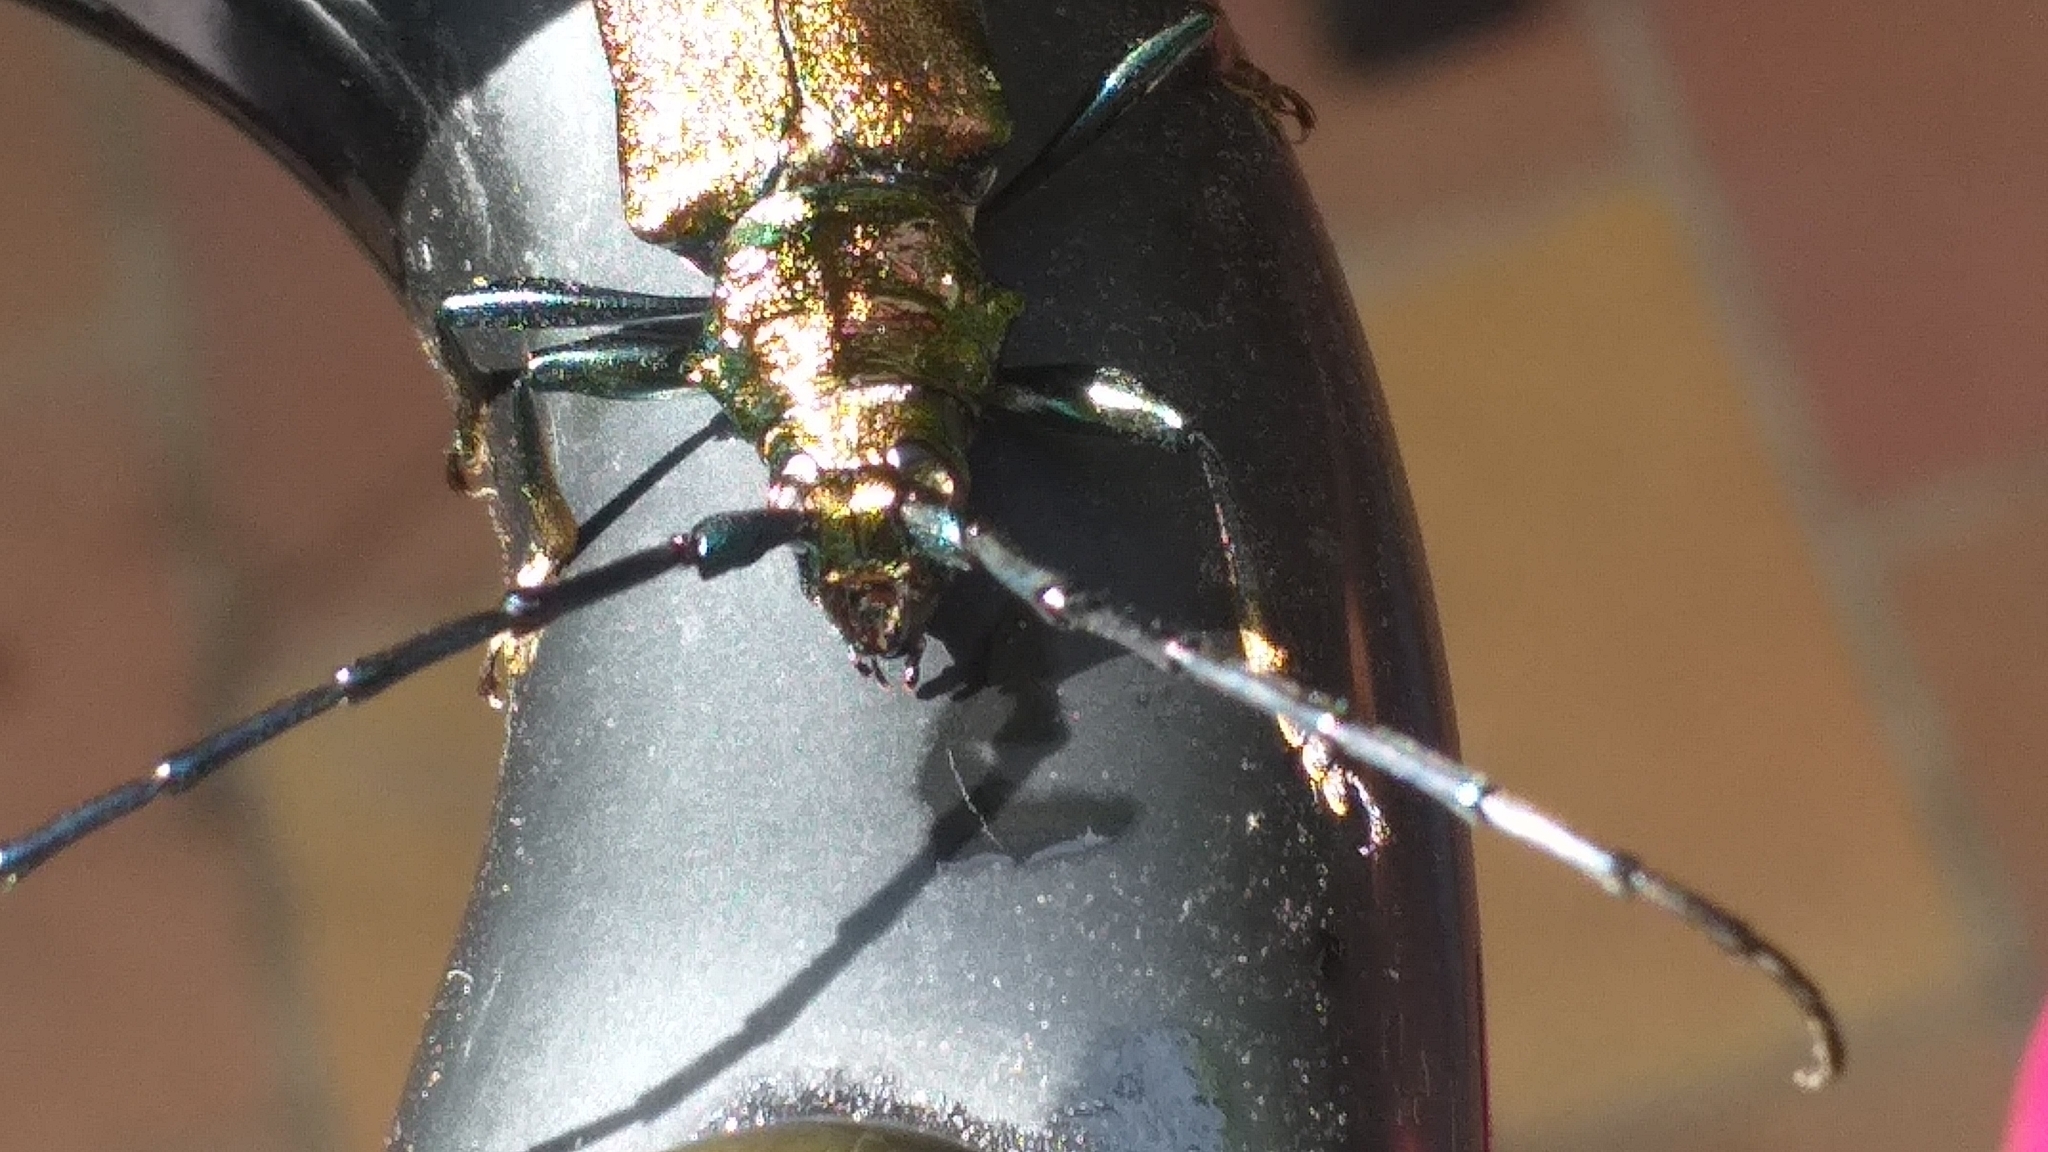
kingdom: Animalia
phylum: Arthropoda
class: Insecta
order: Coleoptera
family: Cerambycidae
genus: Aromia
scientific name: Aromia moschata
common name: Musk beetle
